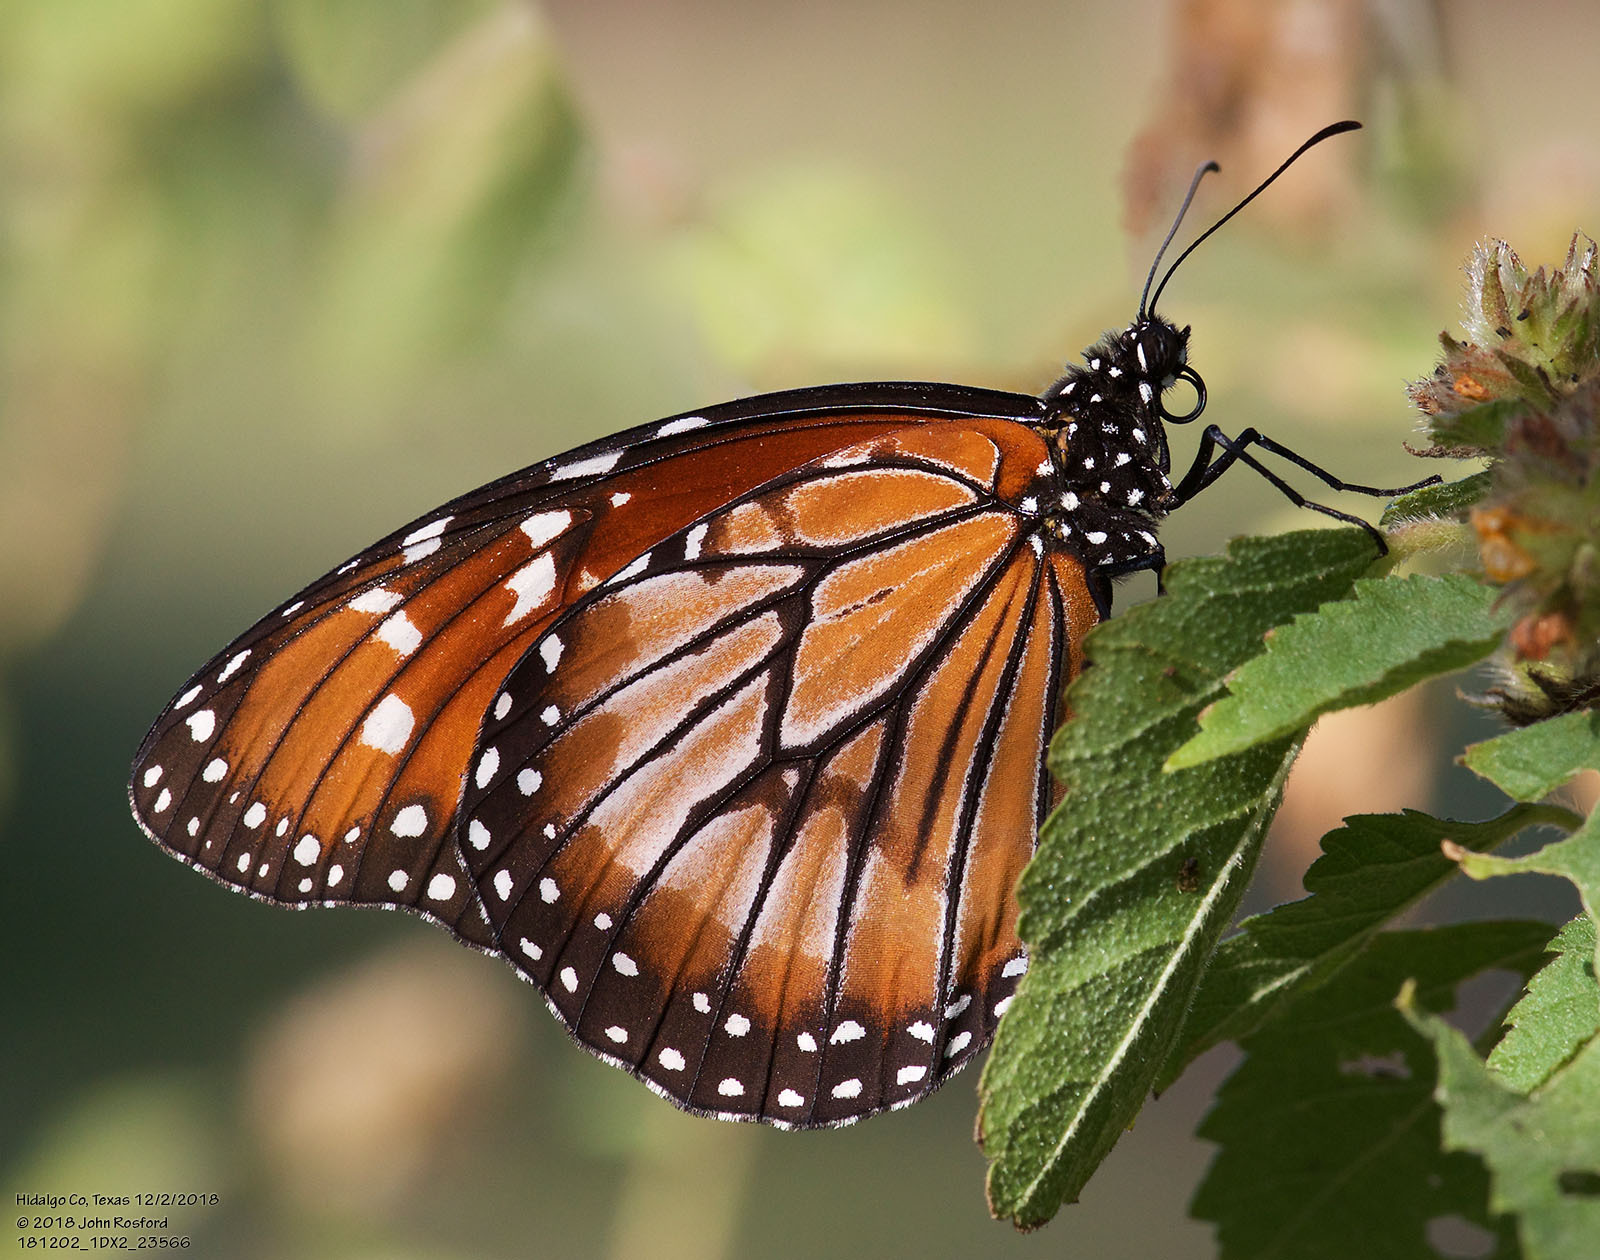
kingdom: Animalia
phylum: Arthropoda
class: Insecta
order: Lepidoptera
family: Nymphalidae
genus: Danaus
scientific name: Danaus eresimus
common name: Soldier
